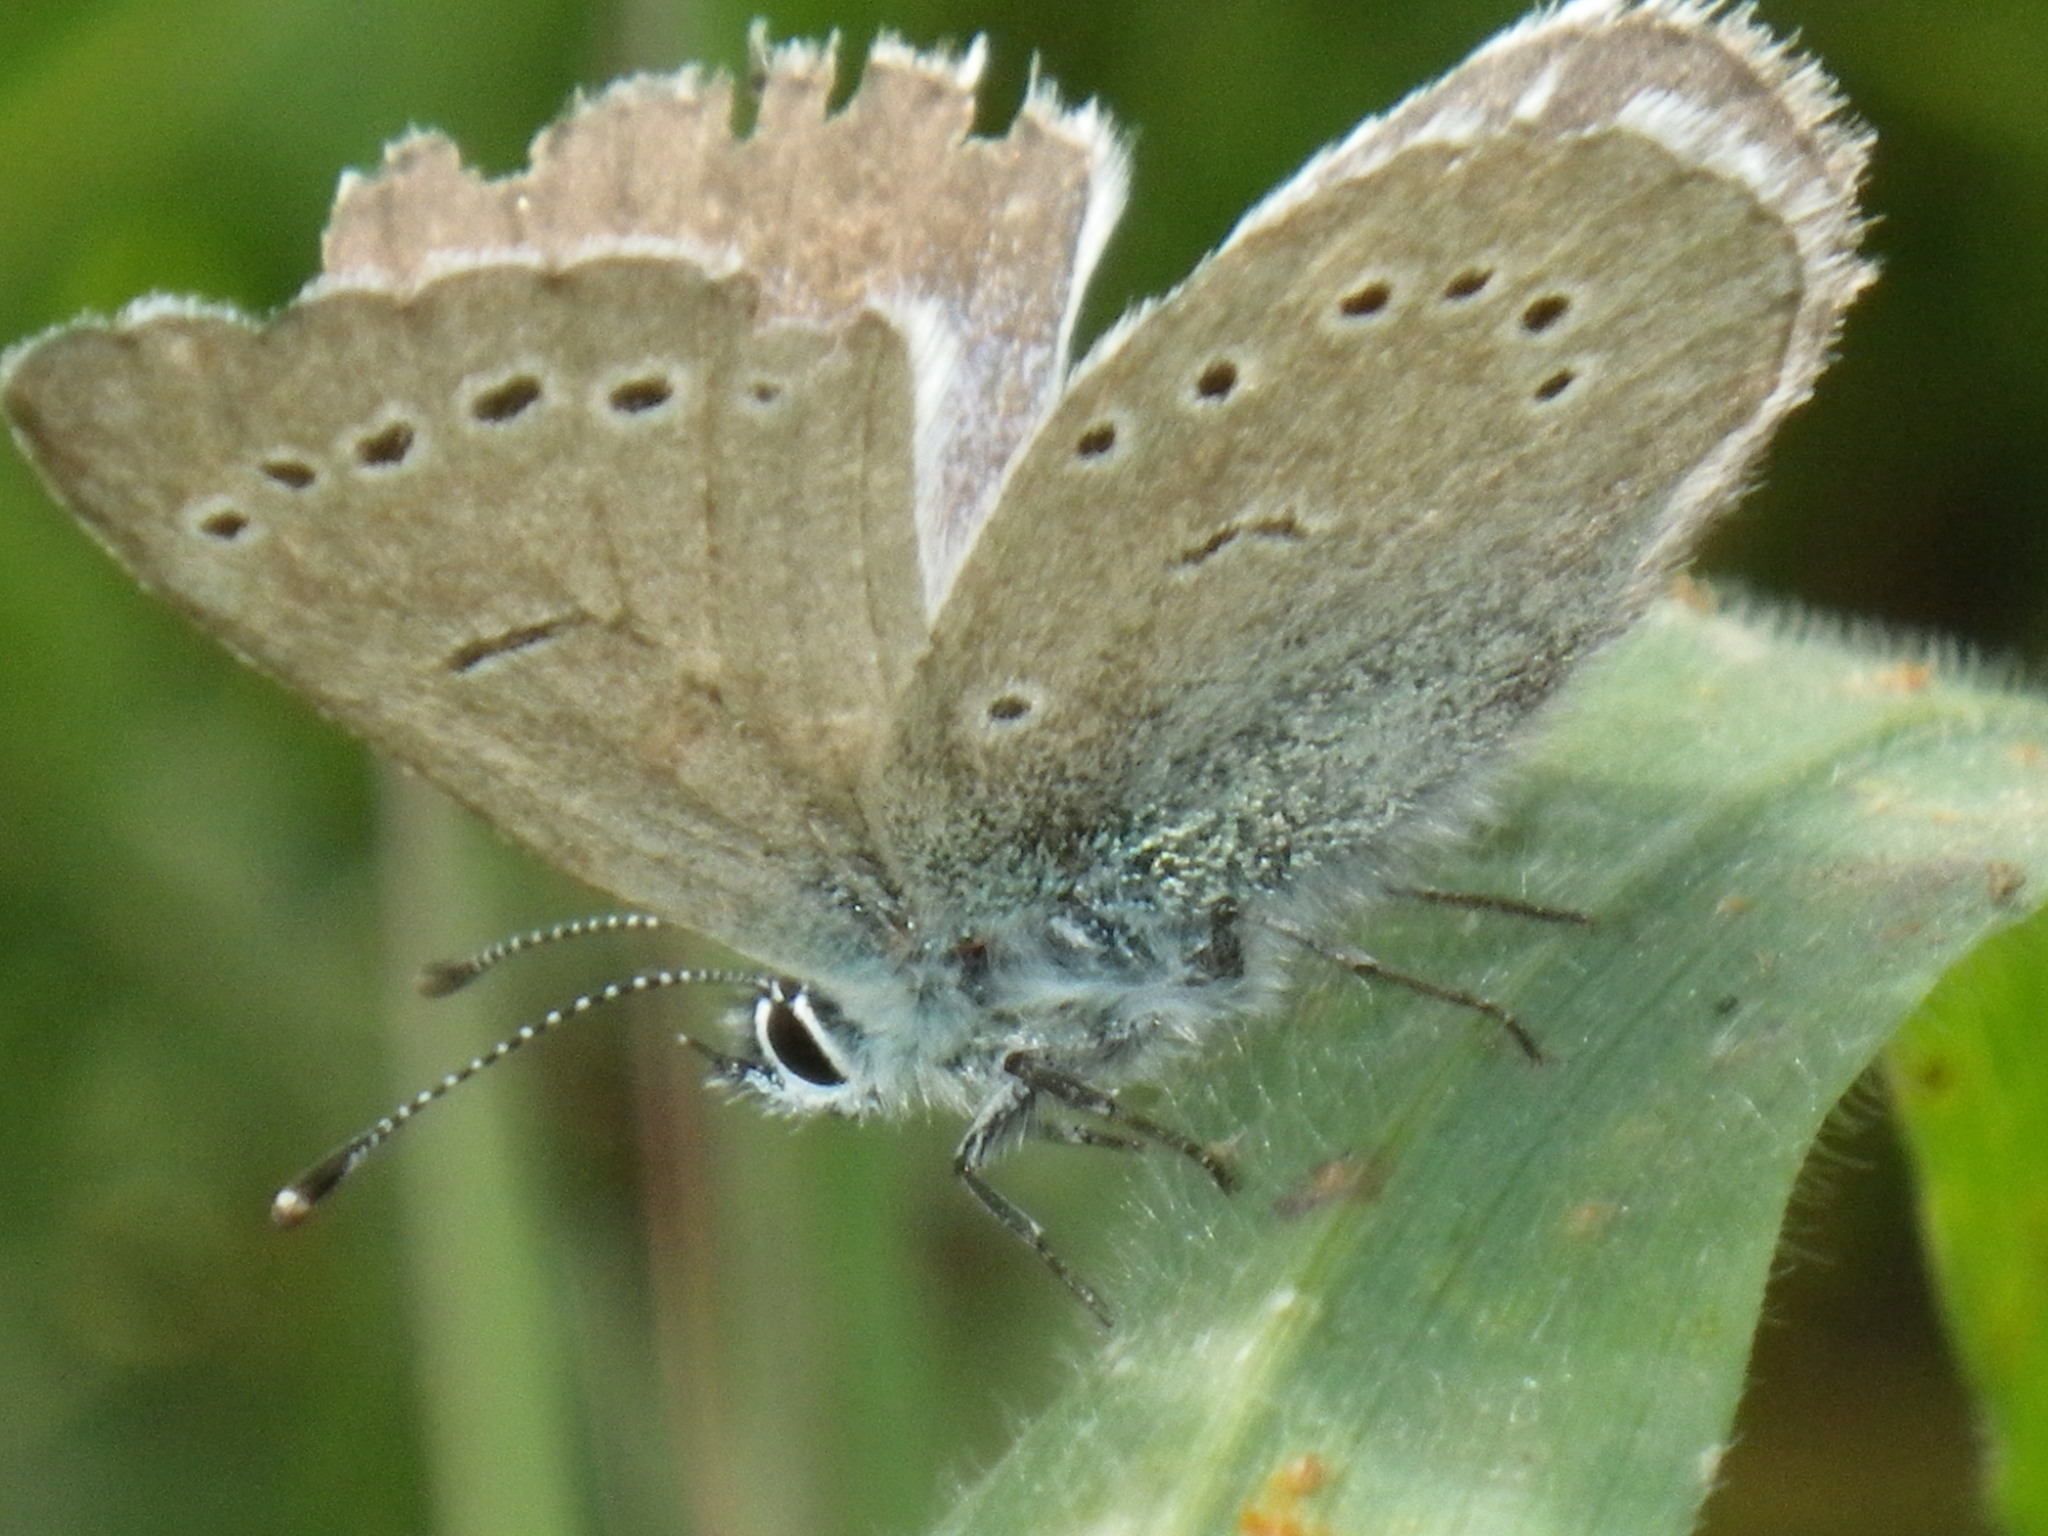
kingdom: Animalia
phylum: Arthropoda
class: Insecta
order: Lepidoptera
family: Lycaenidae
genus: Glaucopsyche
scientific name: Glaucopsyche lygdamus
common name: Silvery blue
